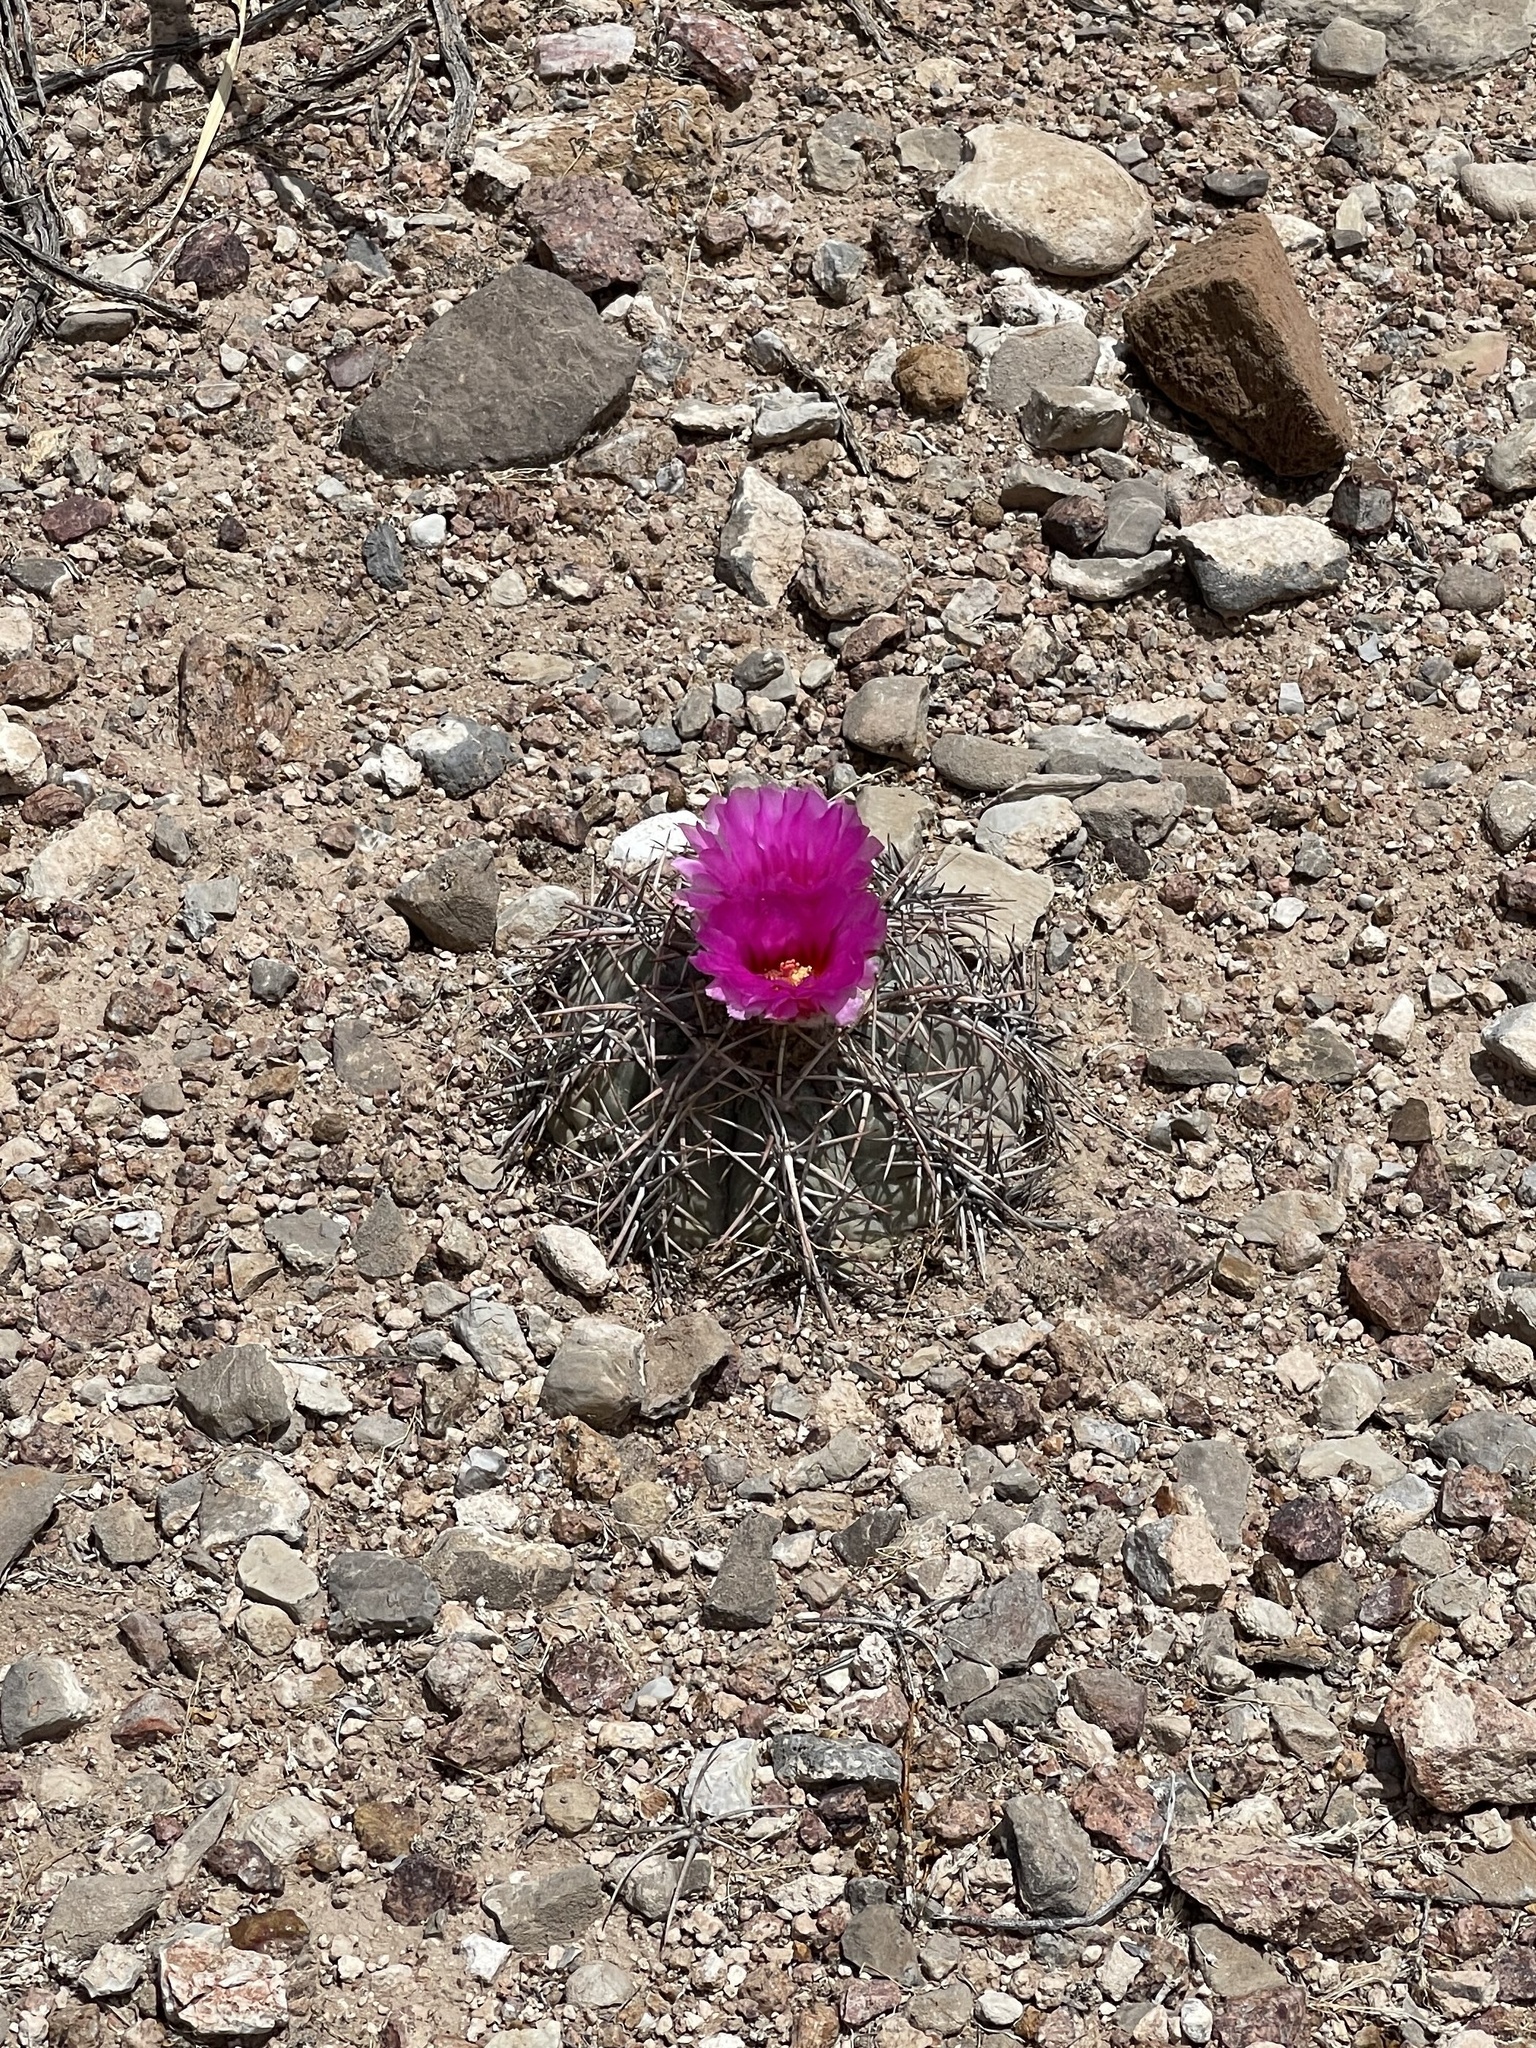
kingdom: Plantae
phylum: Tracheophyta
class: Magnoliopsida
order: Caryophyllales
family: Cactaceae
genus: Echinocactus
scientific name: Echinocactus horizonthalonius
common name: Devilshead
